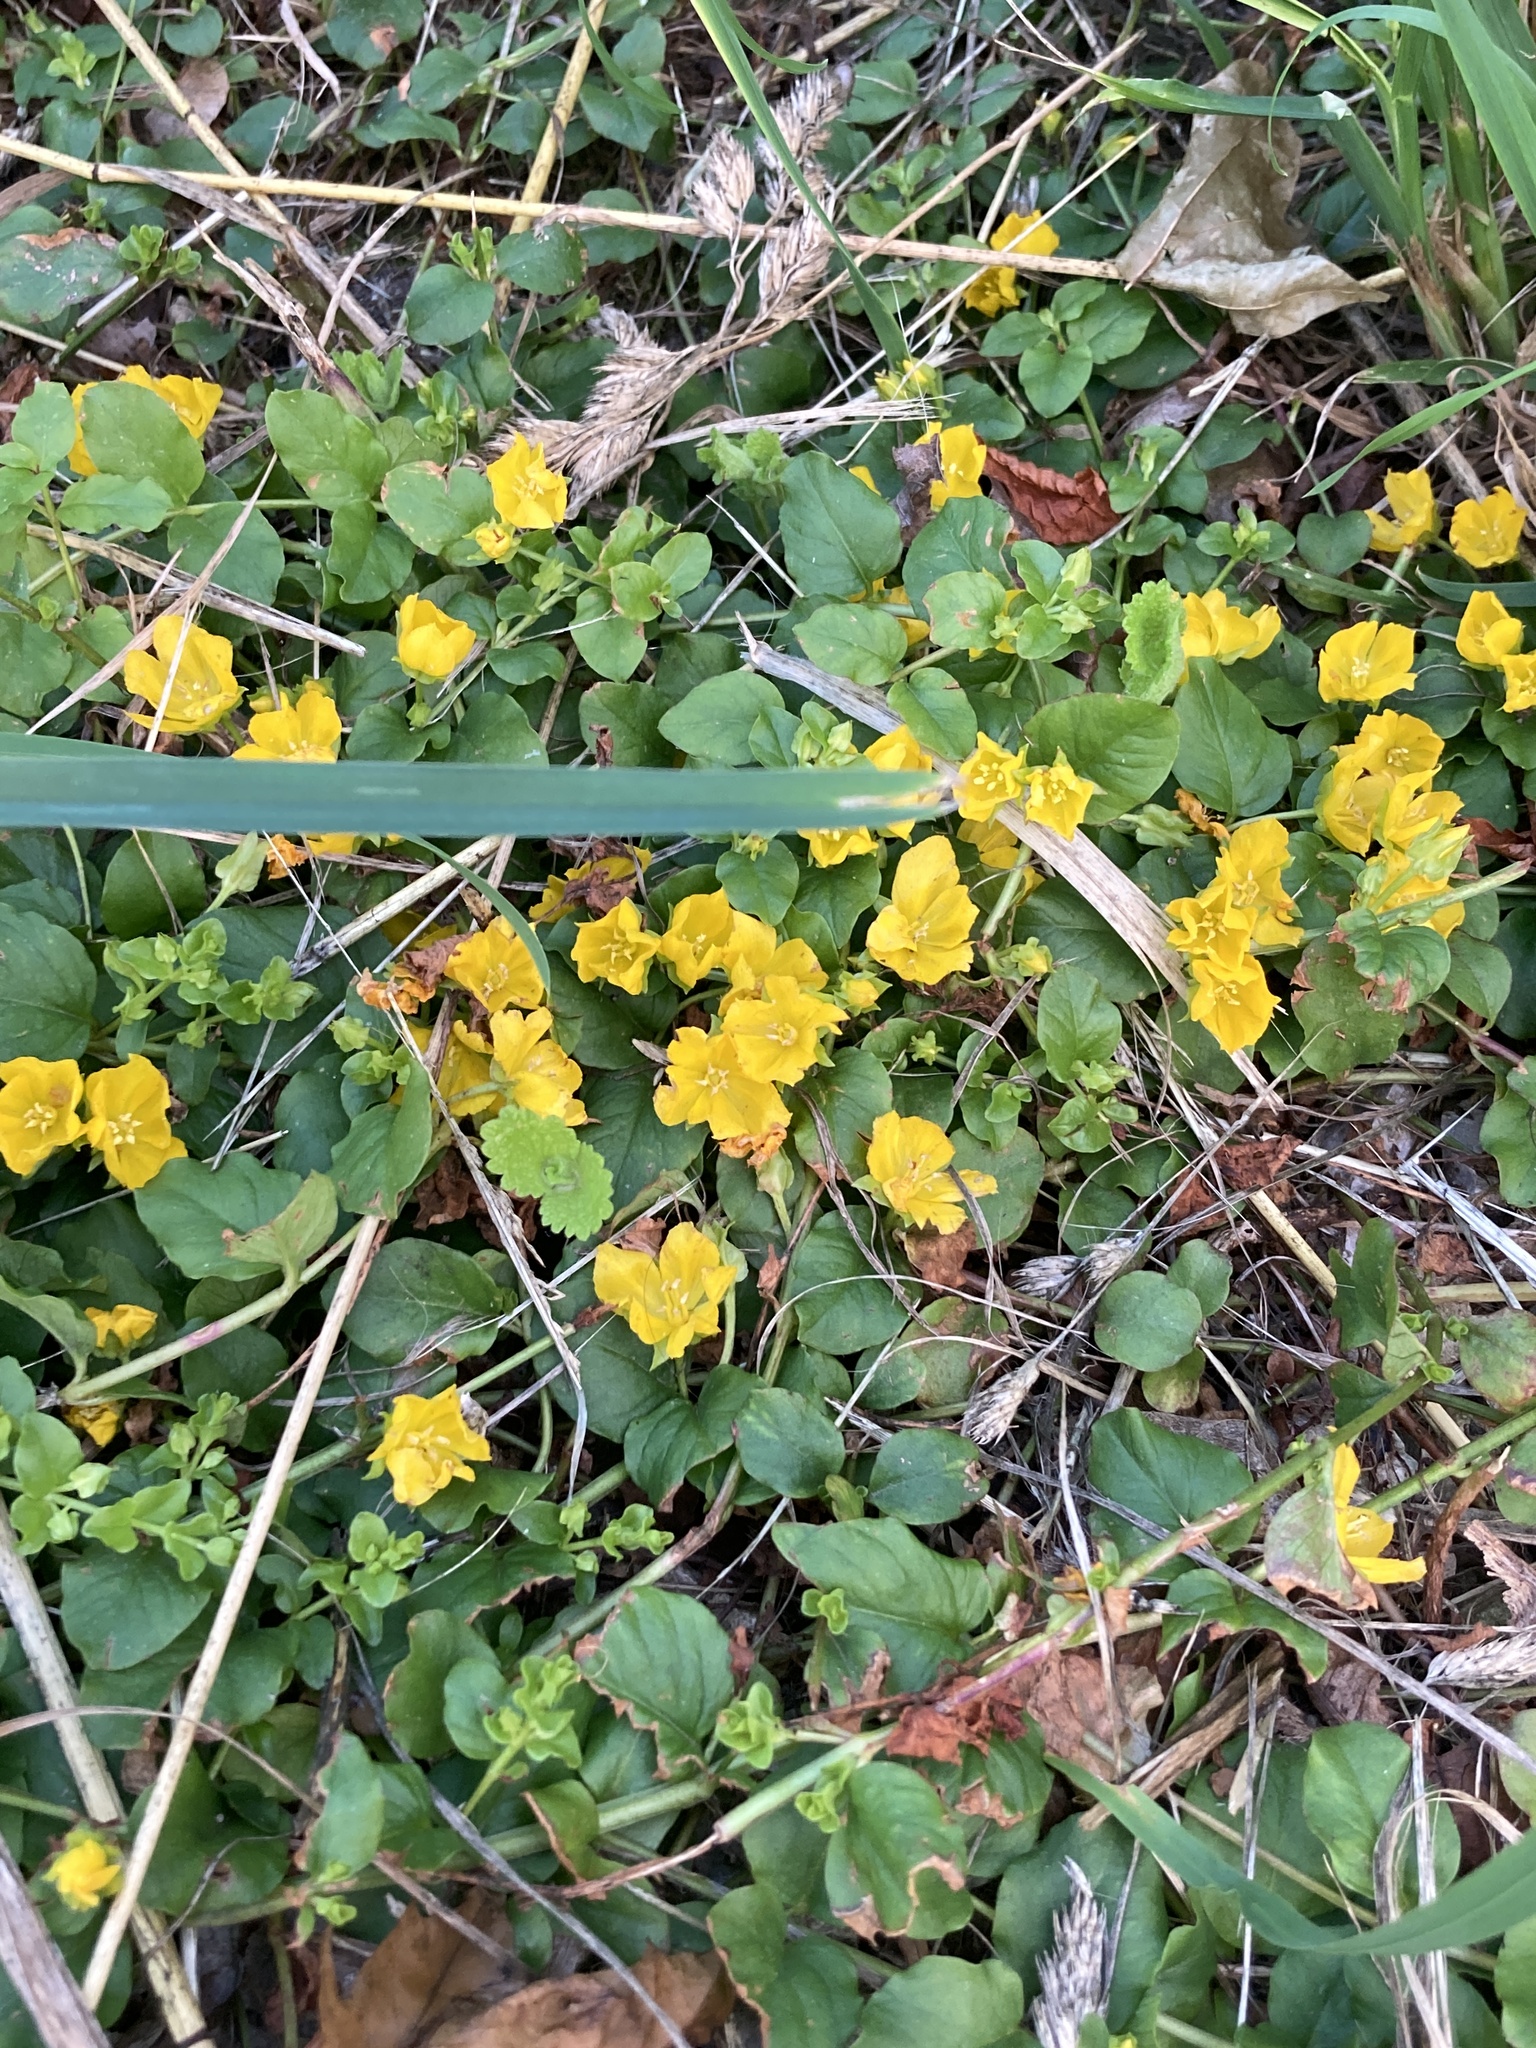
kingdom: Plantae
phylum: Tracheophyta
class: Magnoliopsida
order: Ericales
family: Primulaceae
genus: Lysimachia
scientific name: Lysimachia nummularia
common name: Moneywort
